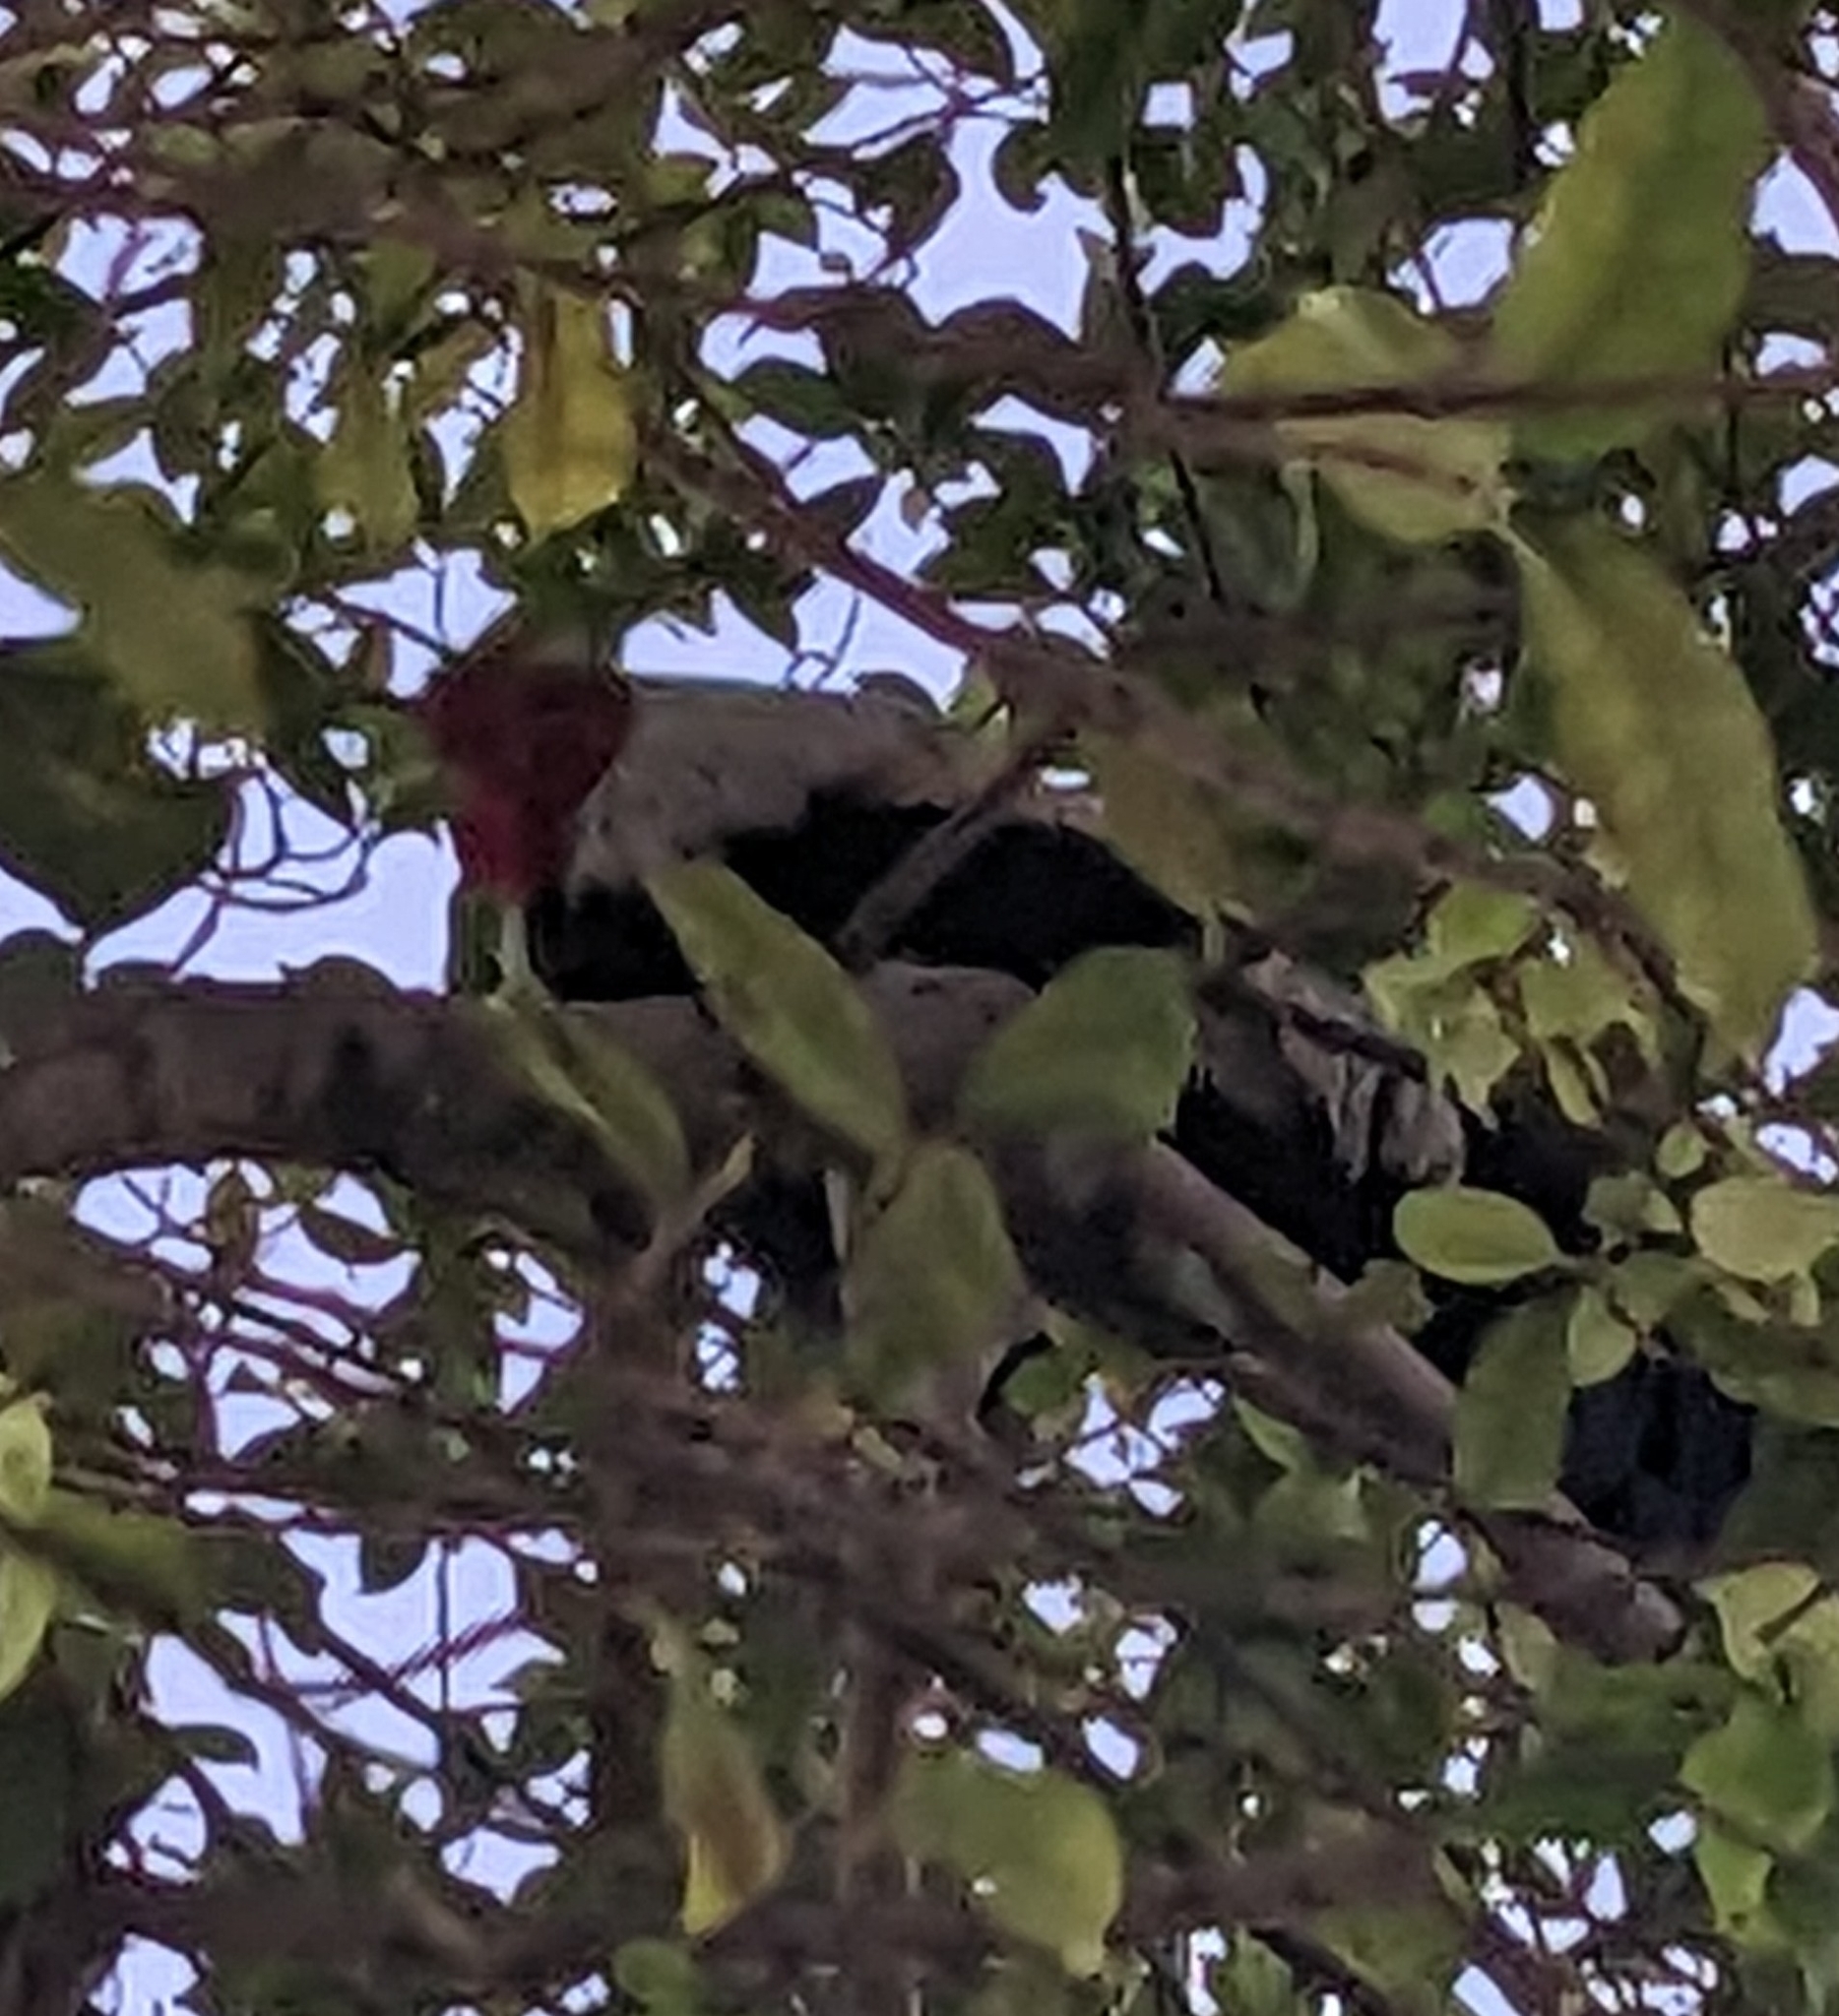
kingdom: Animalia
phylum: Chordata
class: Aves
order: Galliformes
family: Phasianidae
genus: Gallus
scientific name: Gallus gallus
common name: Red junglefowl
